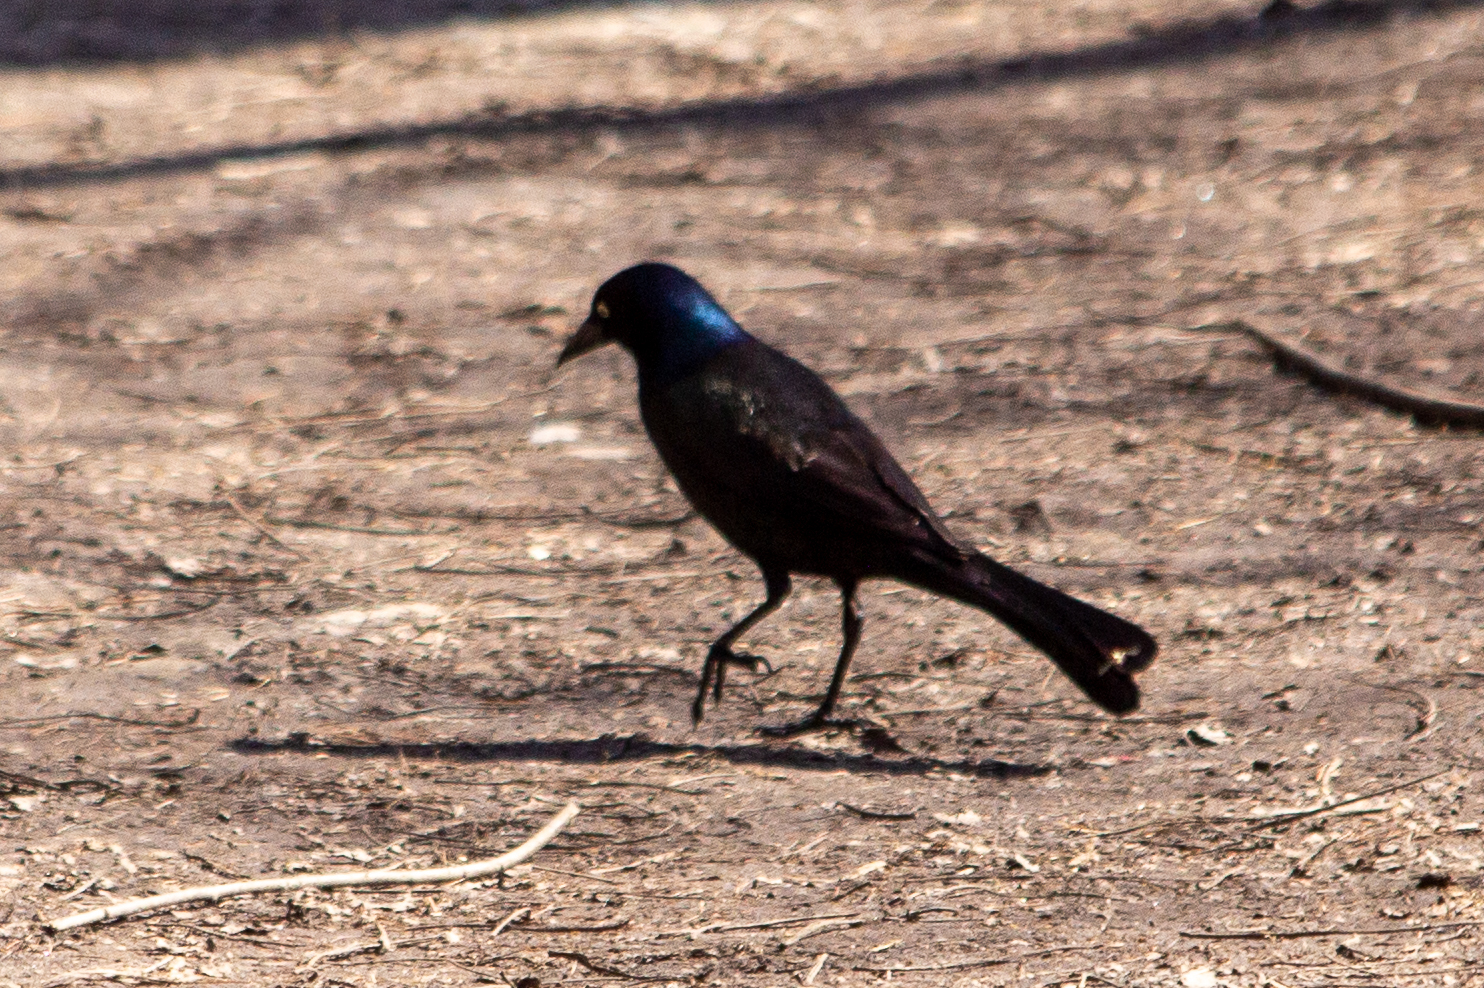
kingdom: Animalia
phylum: Chordata
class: Aves
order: Passeriformes
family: Icteridae
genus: Quiscalus
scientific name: Quiscalus quiscula
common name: Common grackle
